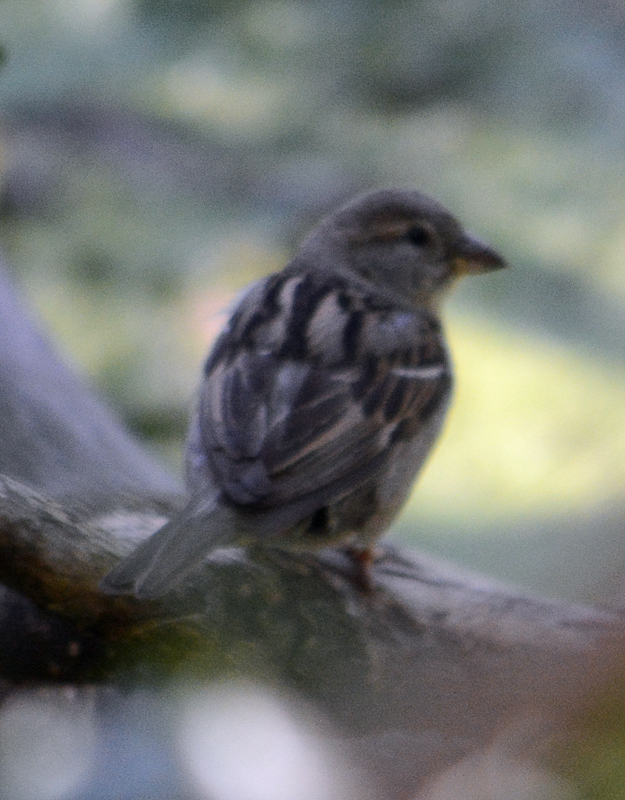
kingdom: Animalia
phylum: Chordata
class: Aves
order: Passeriformes
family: Passeridae
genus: Passer
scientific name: Passer domesticus
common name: House sparrow
